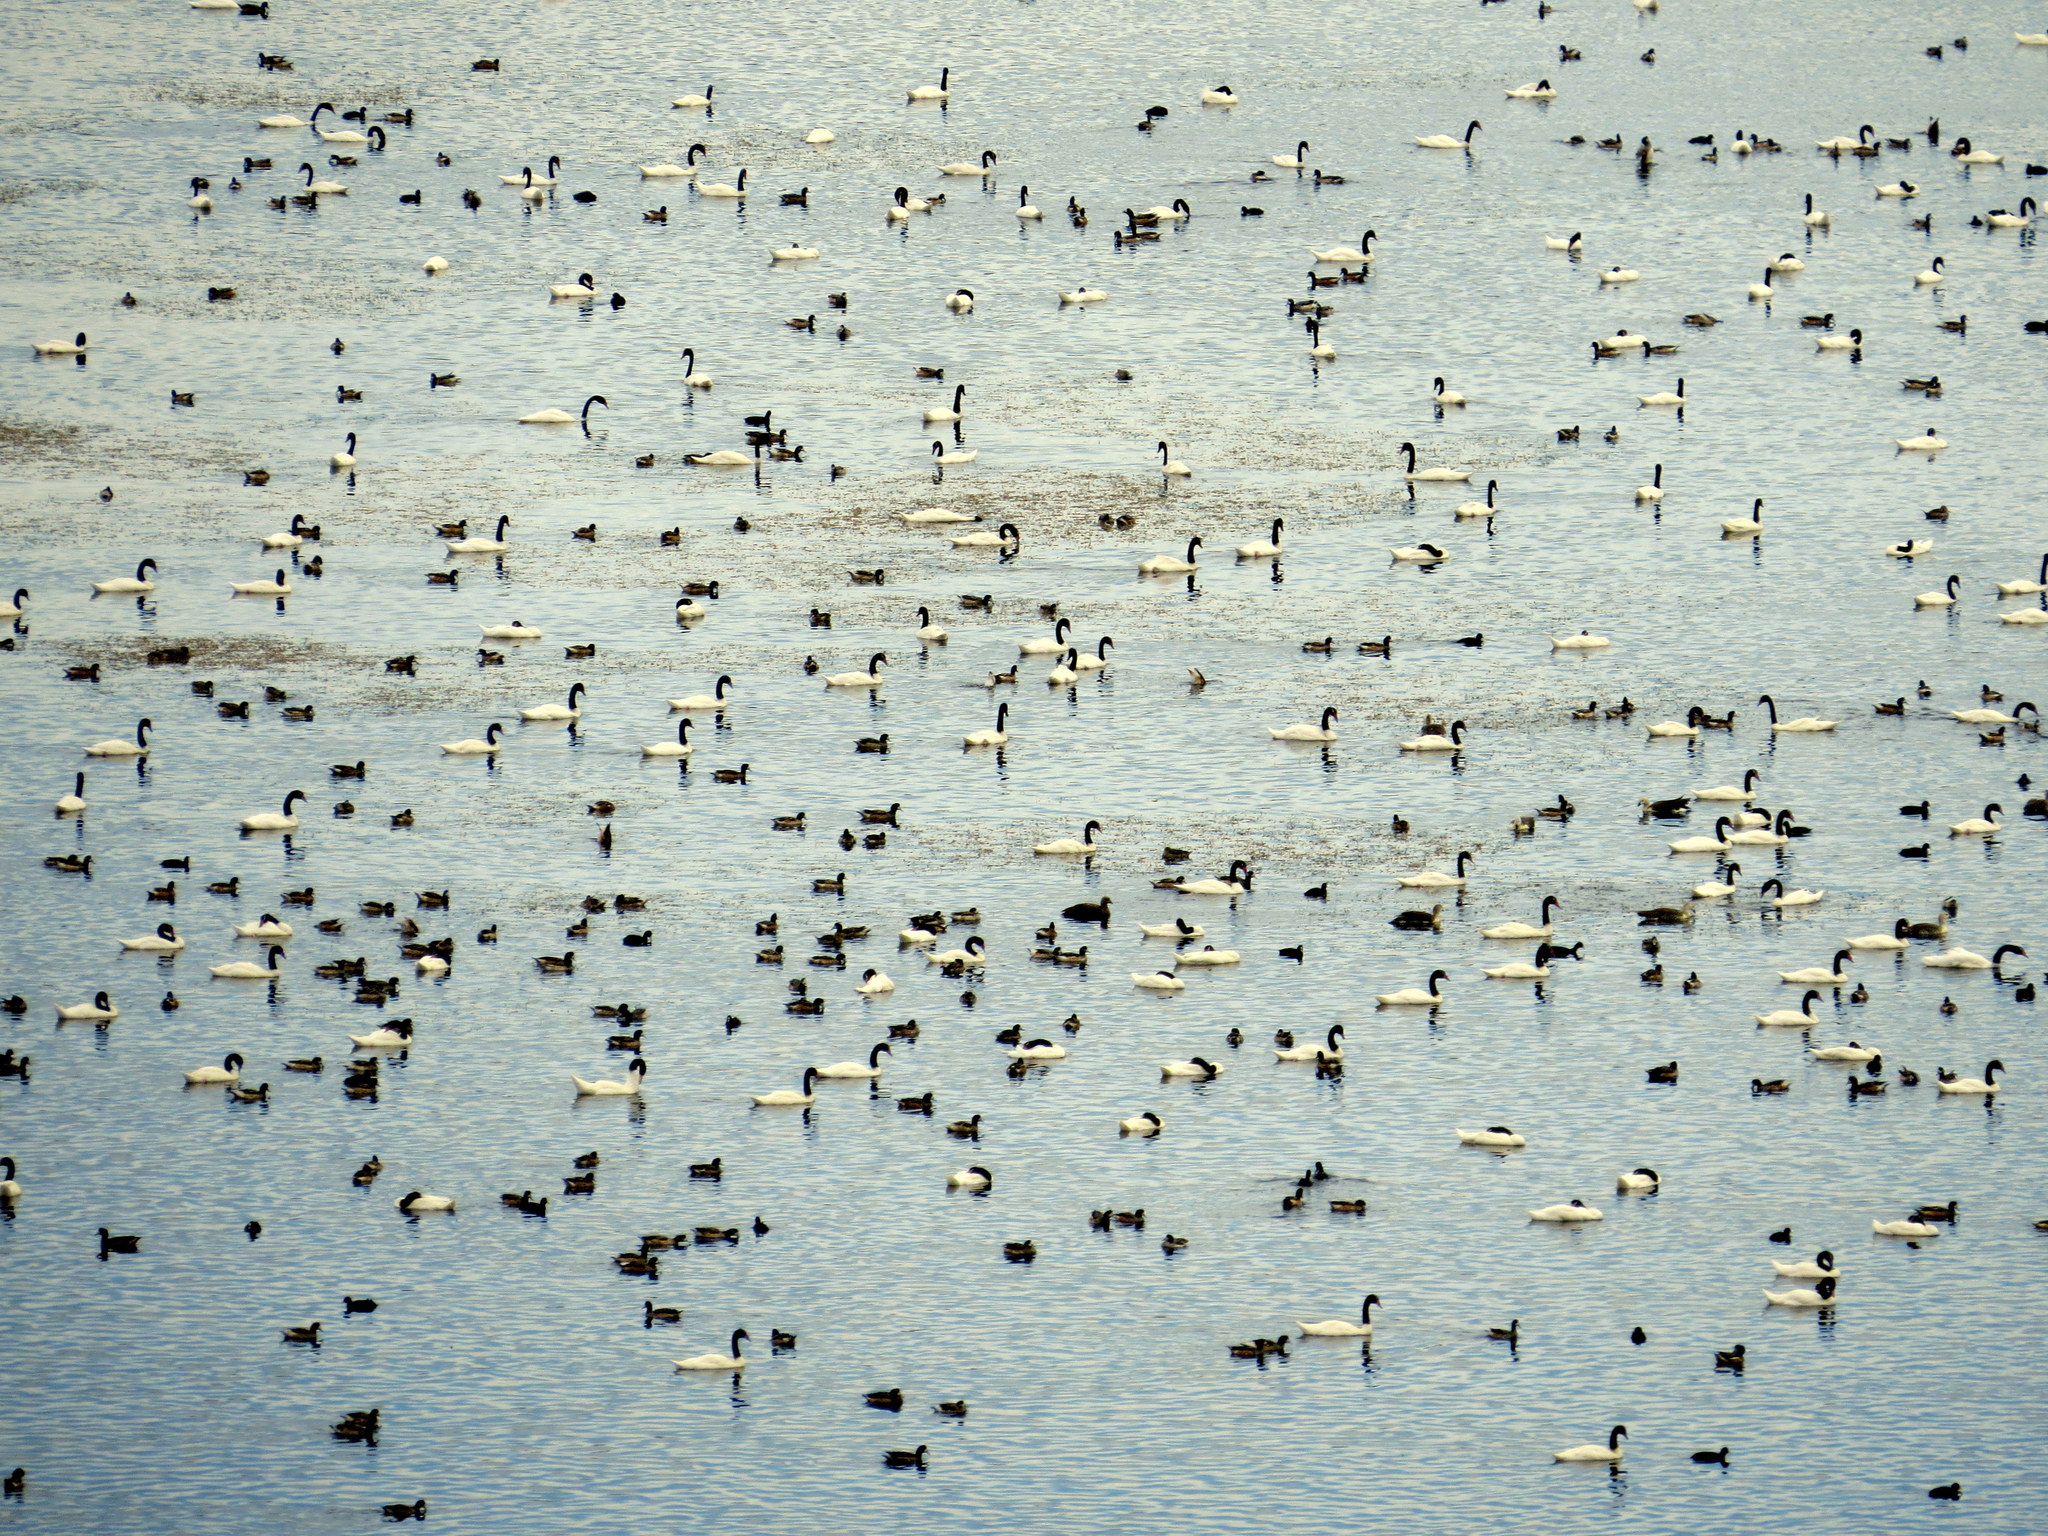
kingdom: Animalia
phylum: Chordata
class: Aves
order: Anseriformes
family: Anatidae
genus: Cygnus
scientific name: Cygnus melancoryphus
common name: Black-necked swan
